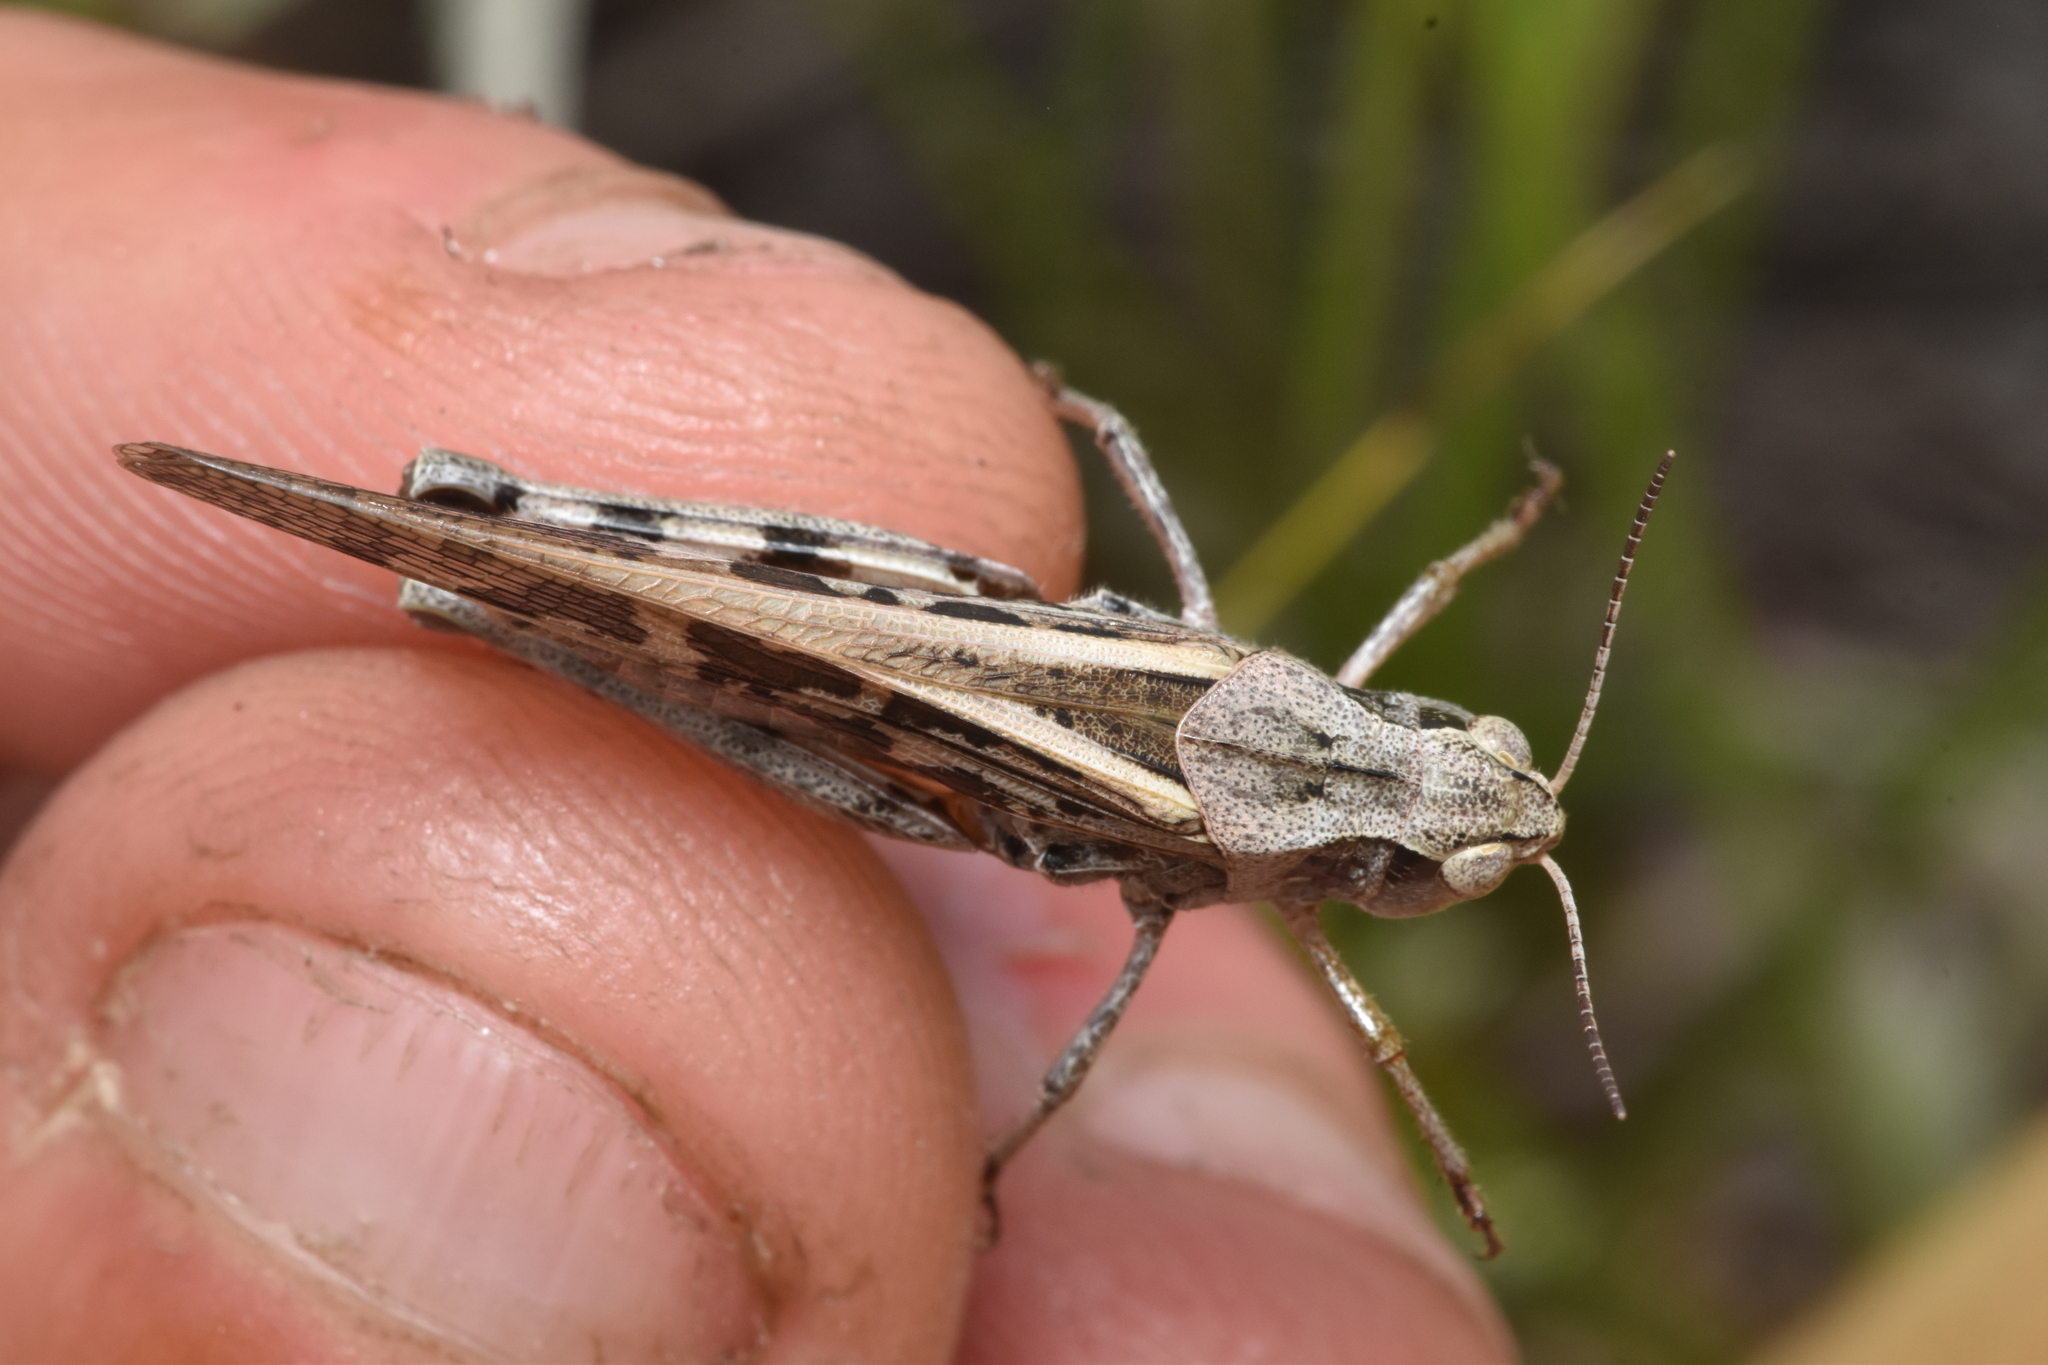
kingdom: Animalia
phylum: Arthropoda
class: Insecta
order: Orthoptera
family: Acrididae
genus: Camnula
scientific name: Camnula pellucida
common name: Clear-winged grasshopper
